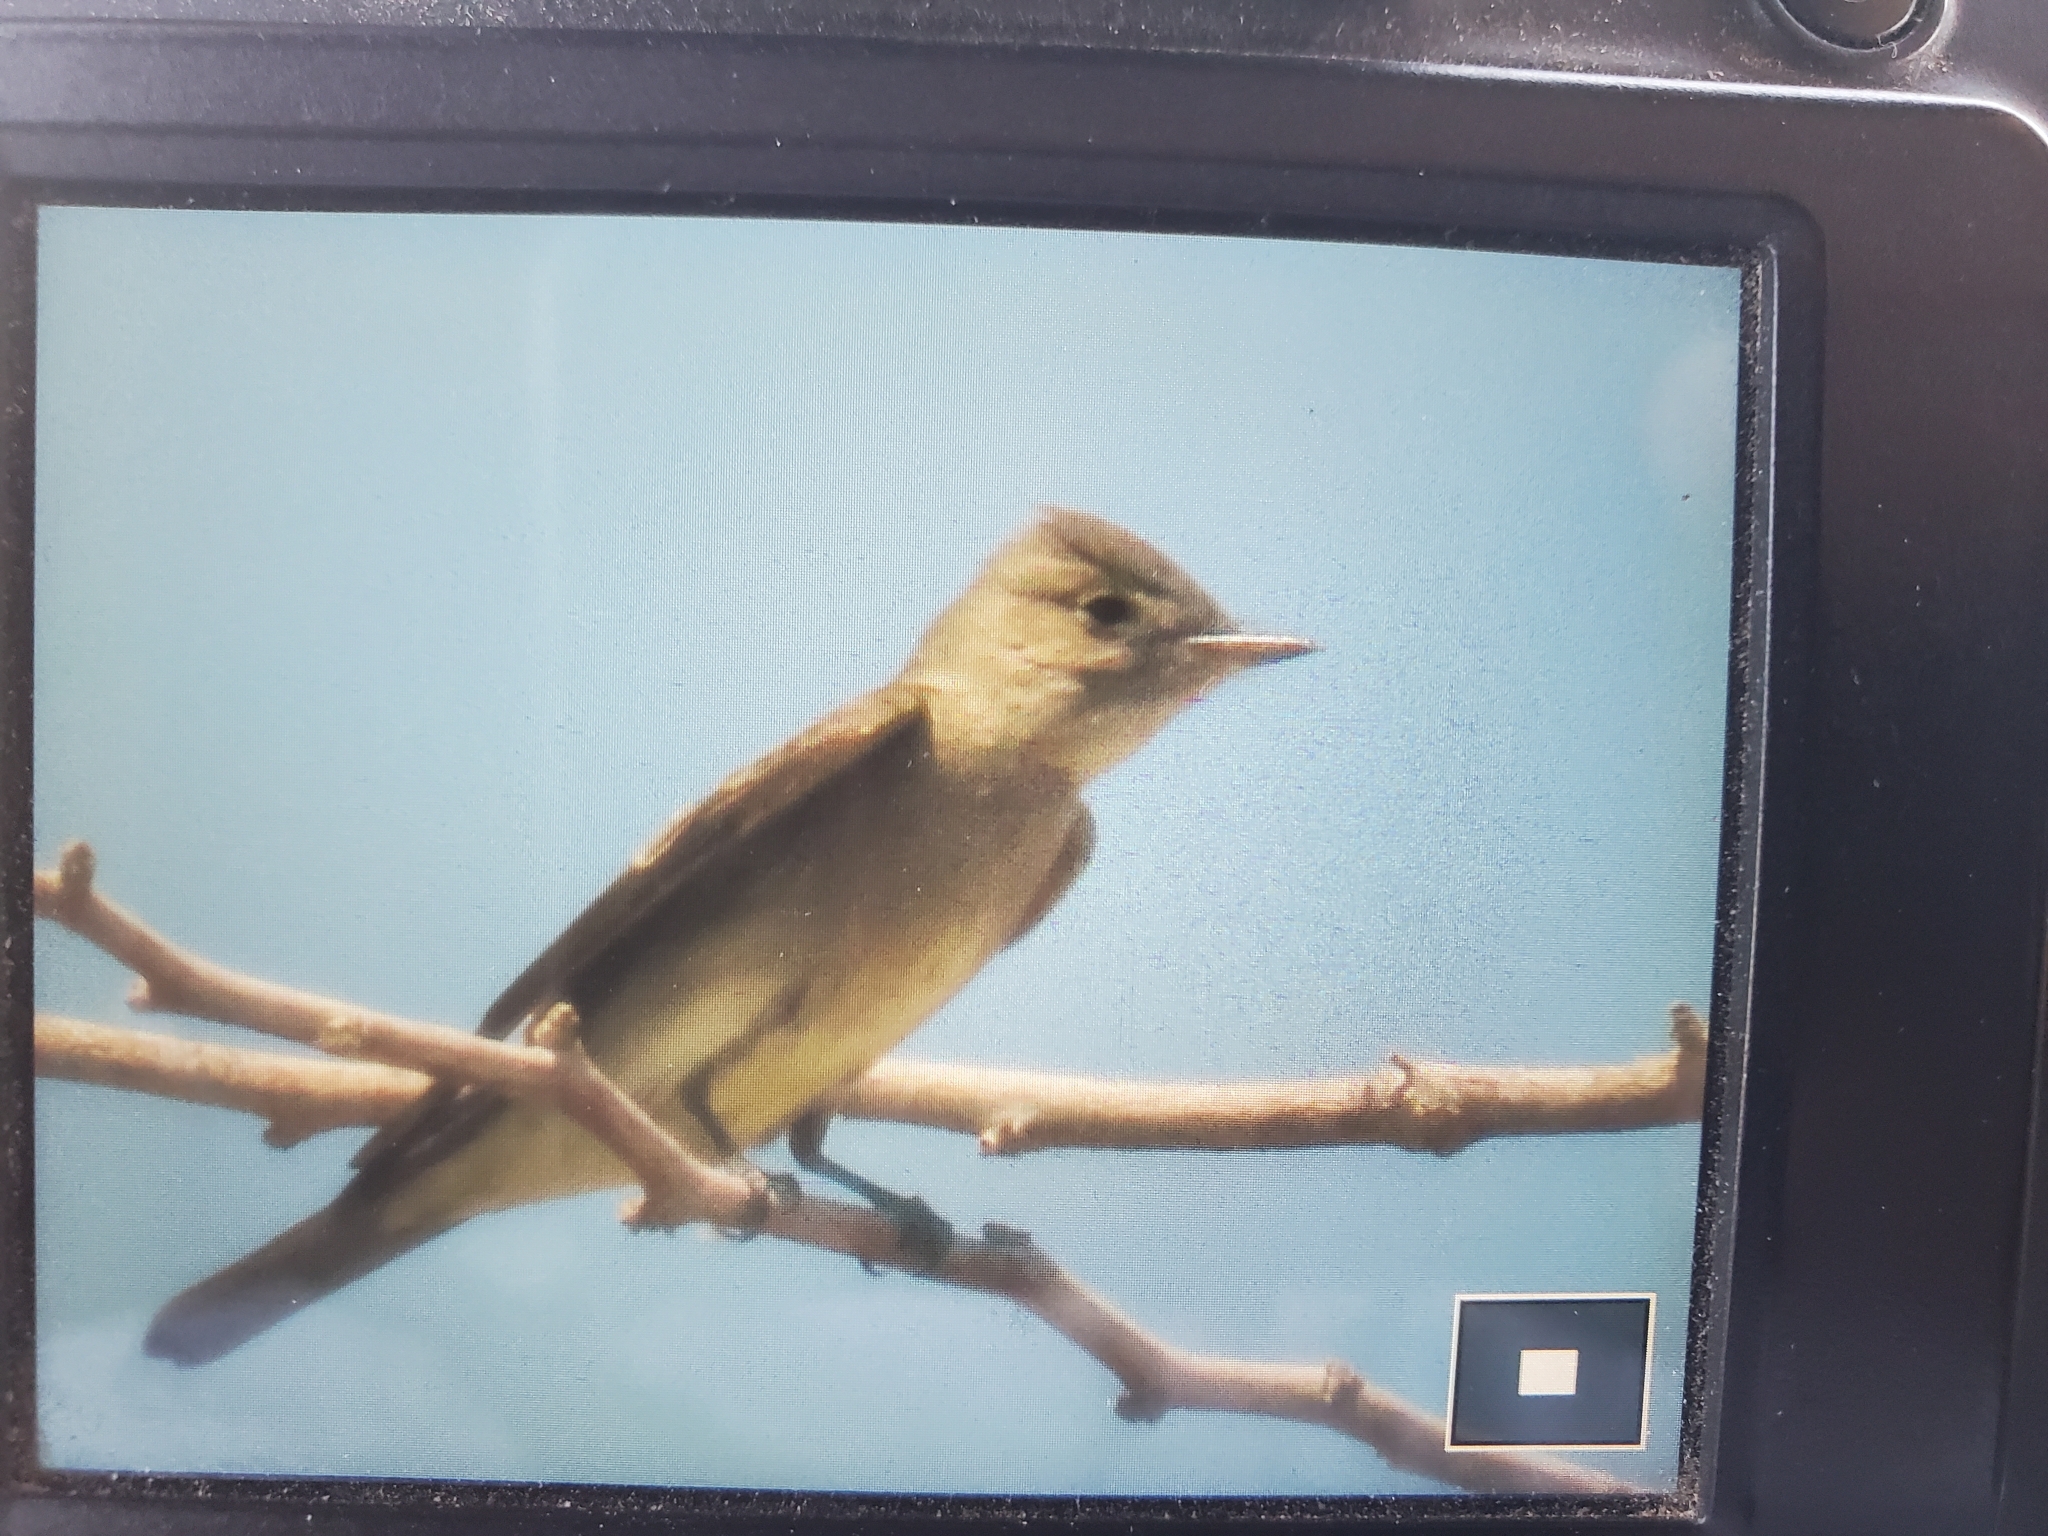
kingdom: Animalia
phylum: Chordata
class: Aves
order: Passeriformes
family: Tyrannidae
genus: Contopus
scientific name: Contopus sordidulus
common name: Western wood-pewee
